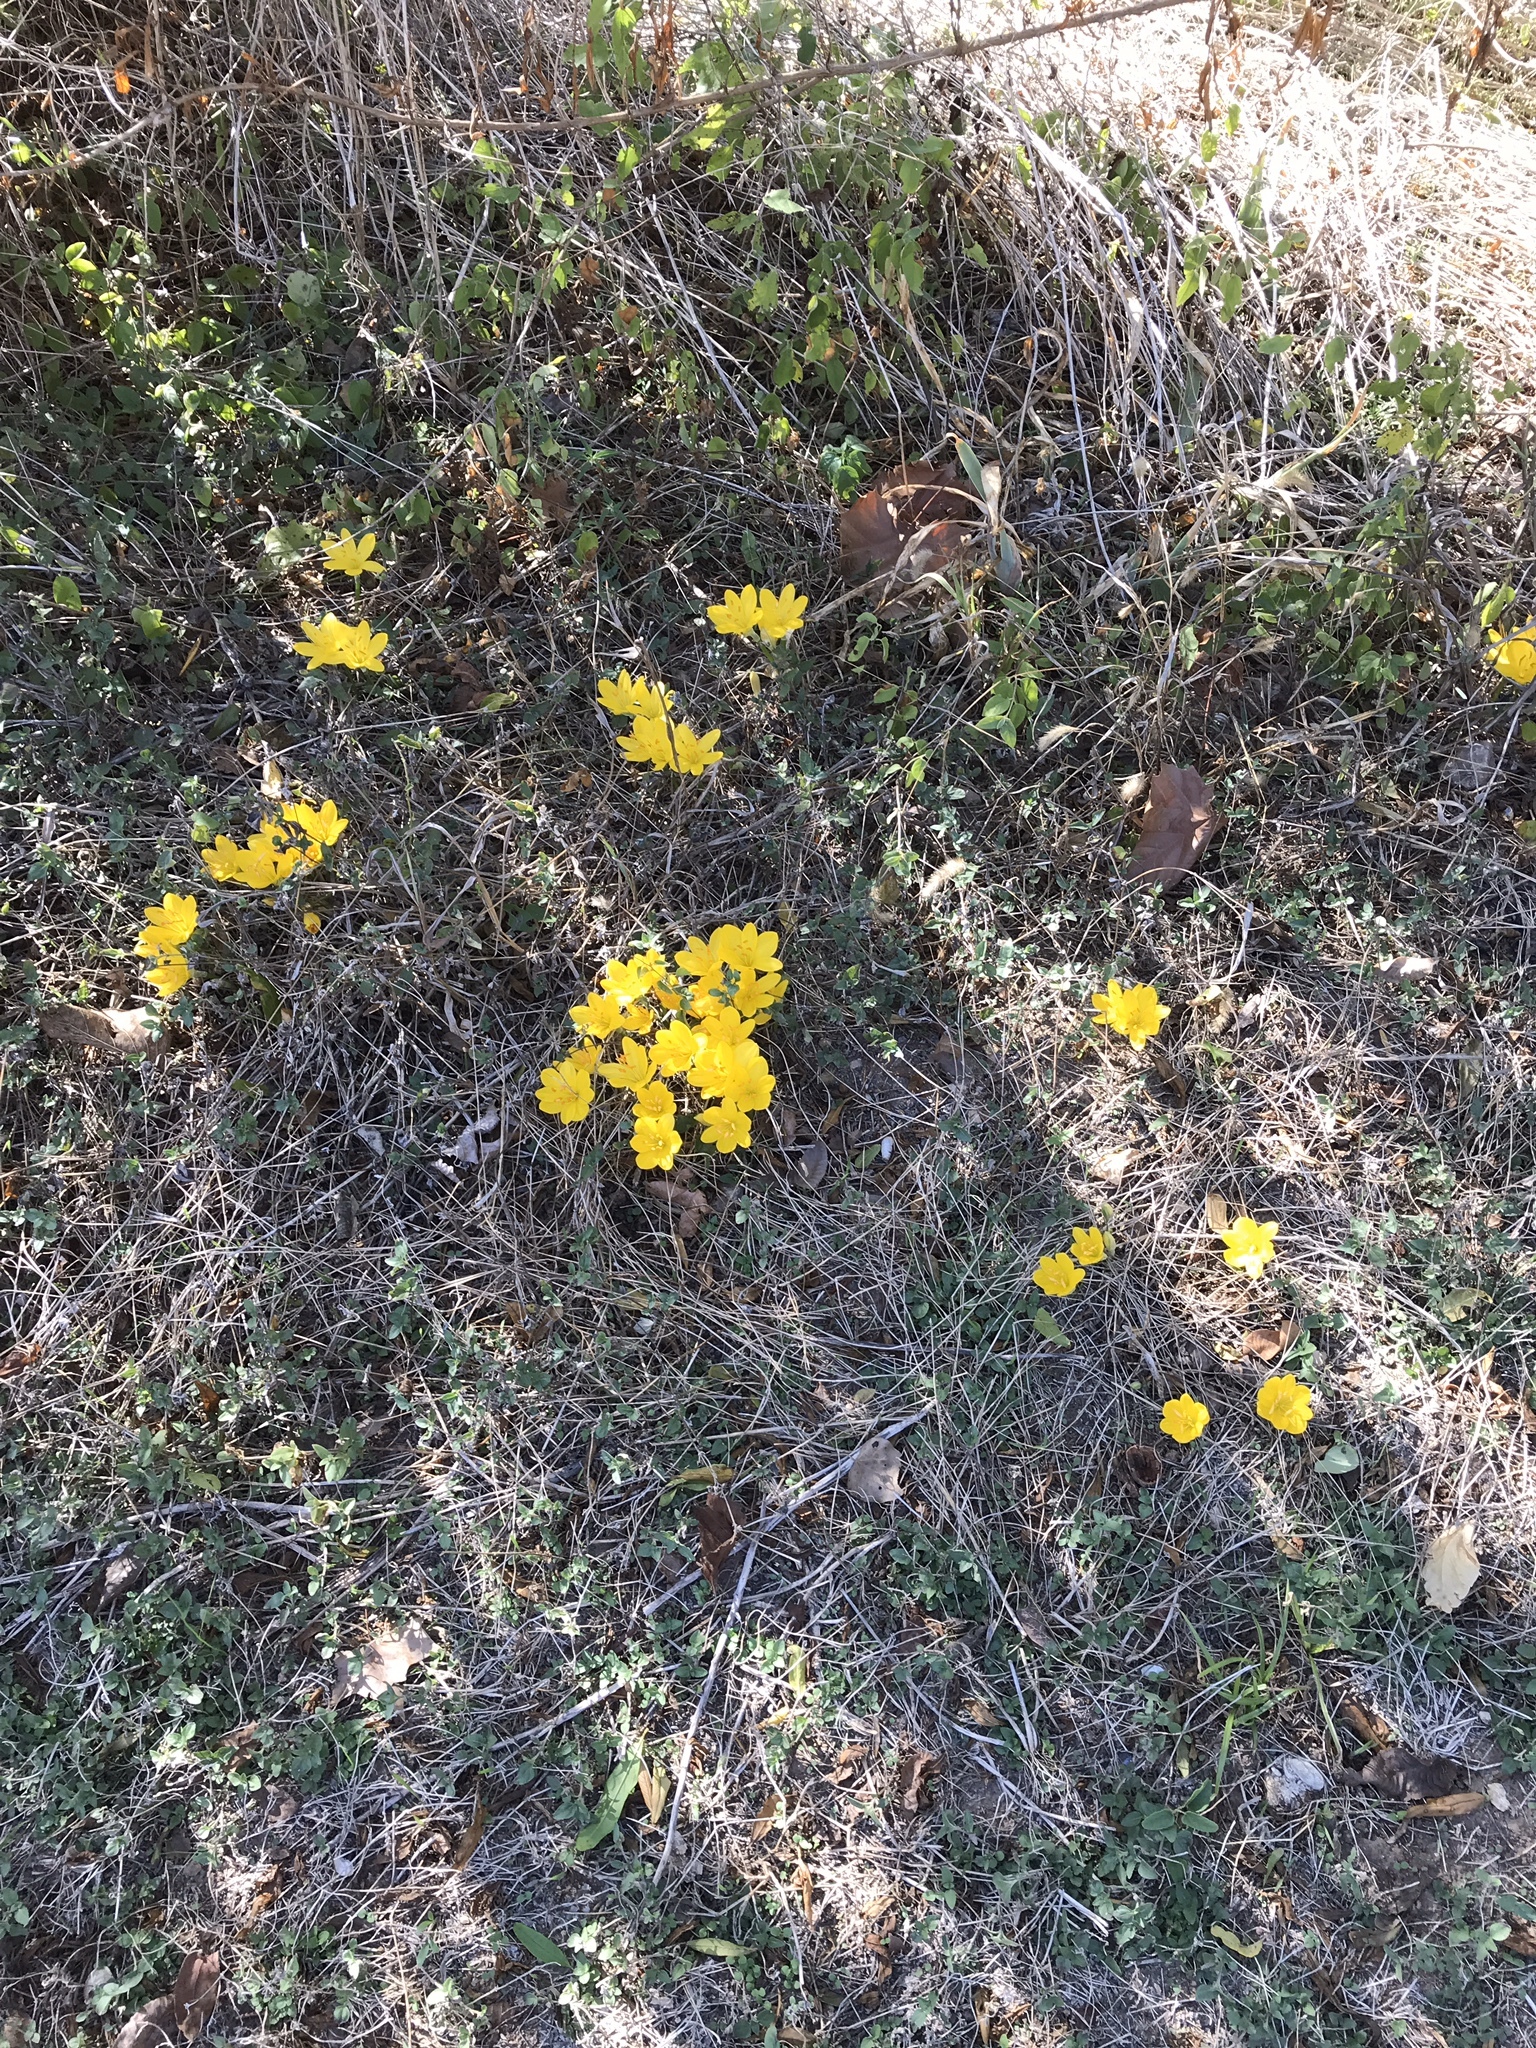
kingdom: Plantae
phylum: Tracheophyta
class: Liliopsida
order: Asparagales
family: Amaryllidaceae
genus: Sternbergia
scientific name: Sternbergia lutea
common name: Winter daffodil
